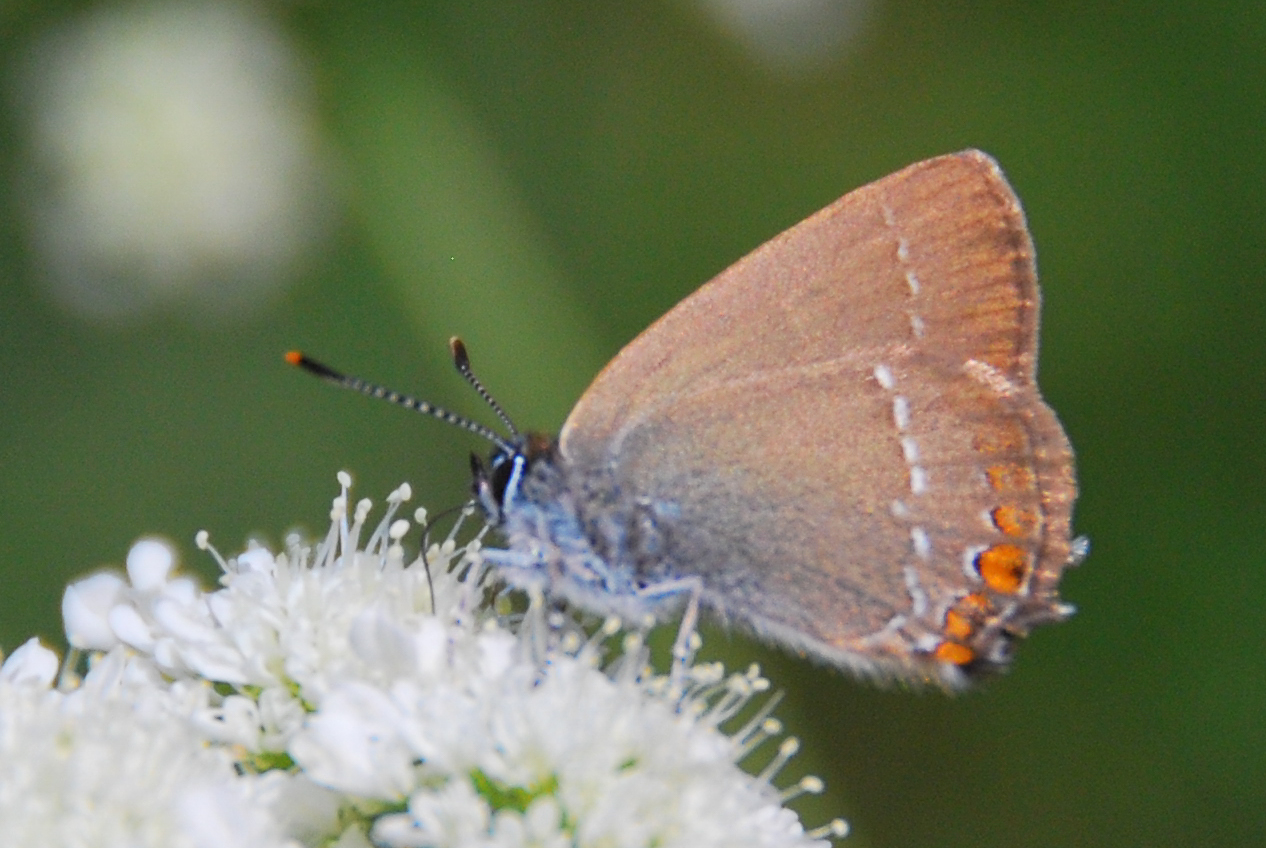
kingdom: Animalia
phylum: Arthropoda
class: Insecta
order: Lepidoptera
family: Lycaenidae
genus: Strymon
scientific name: Strymon acaciae
